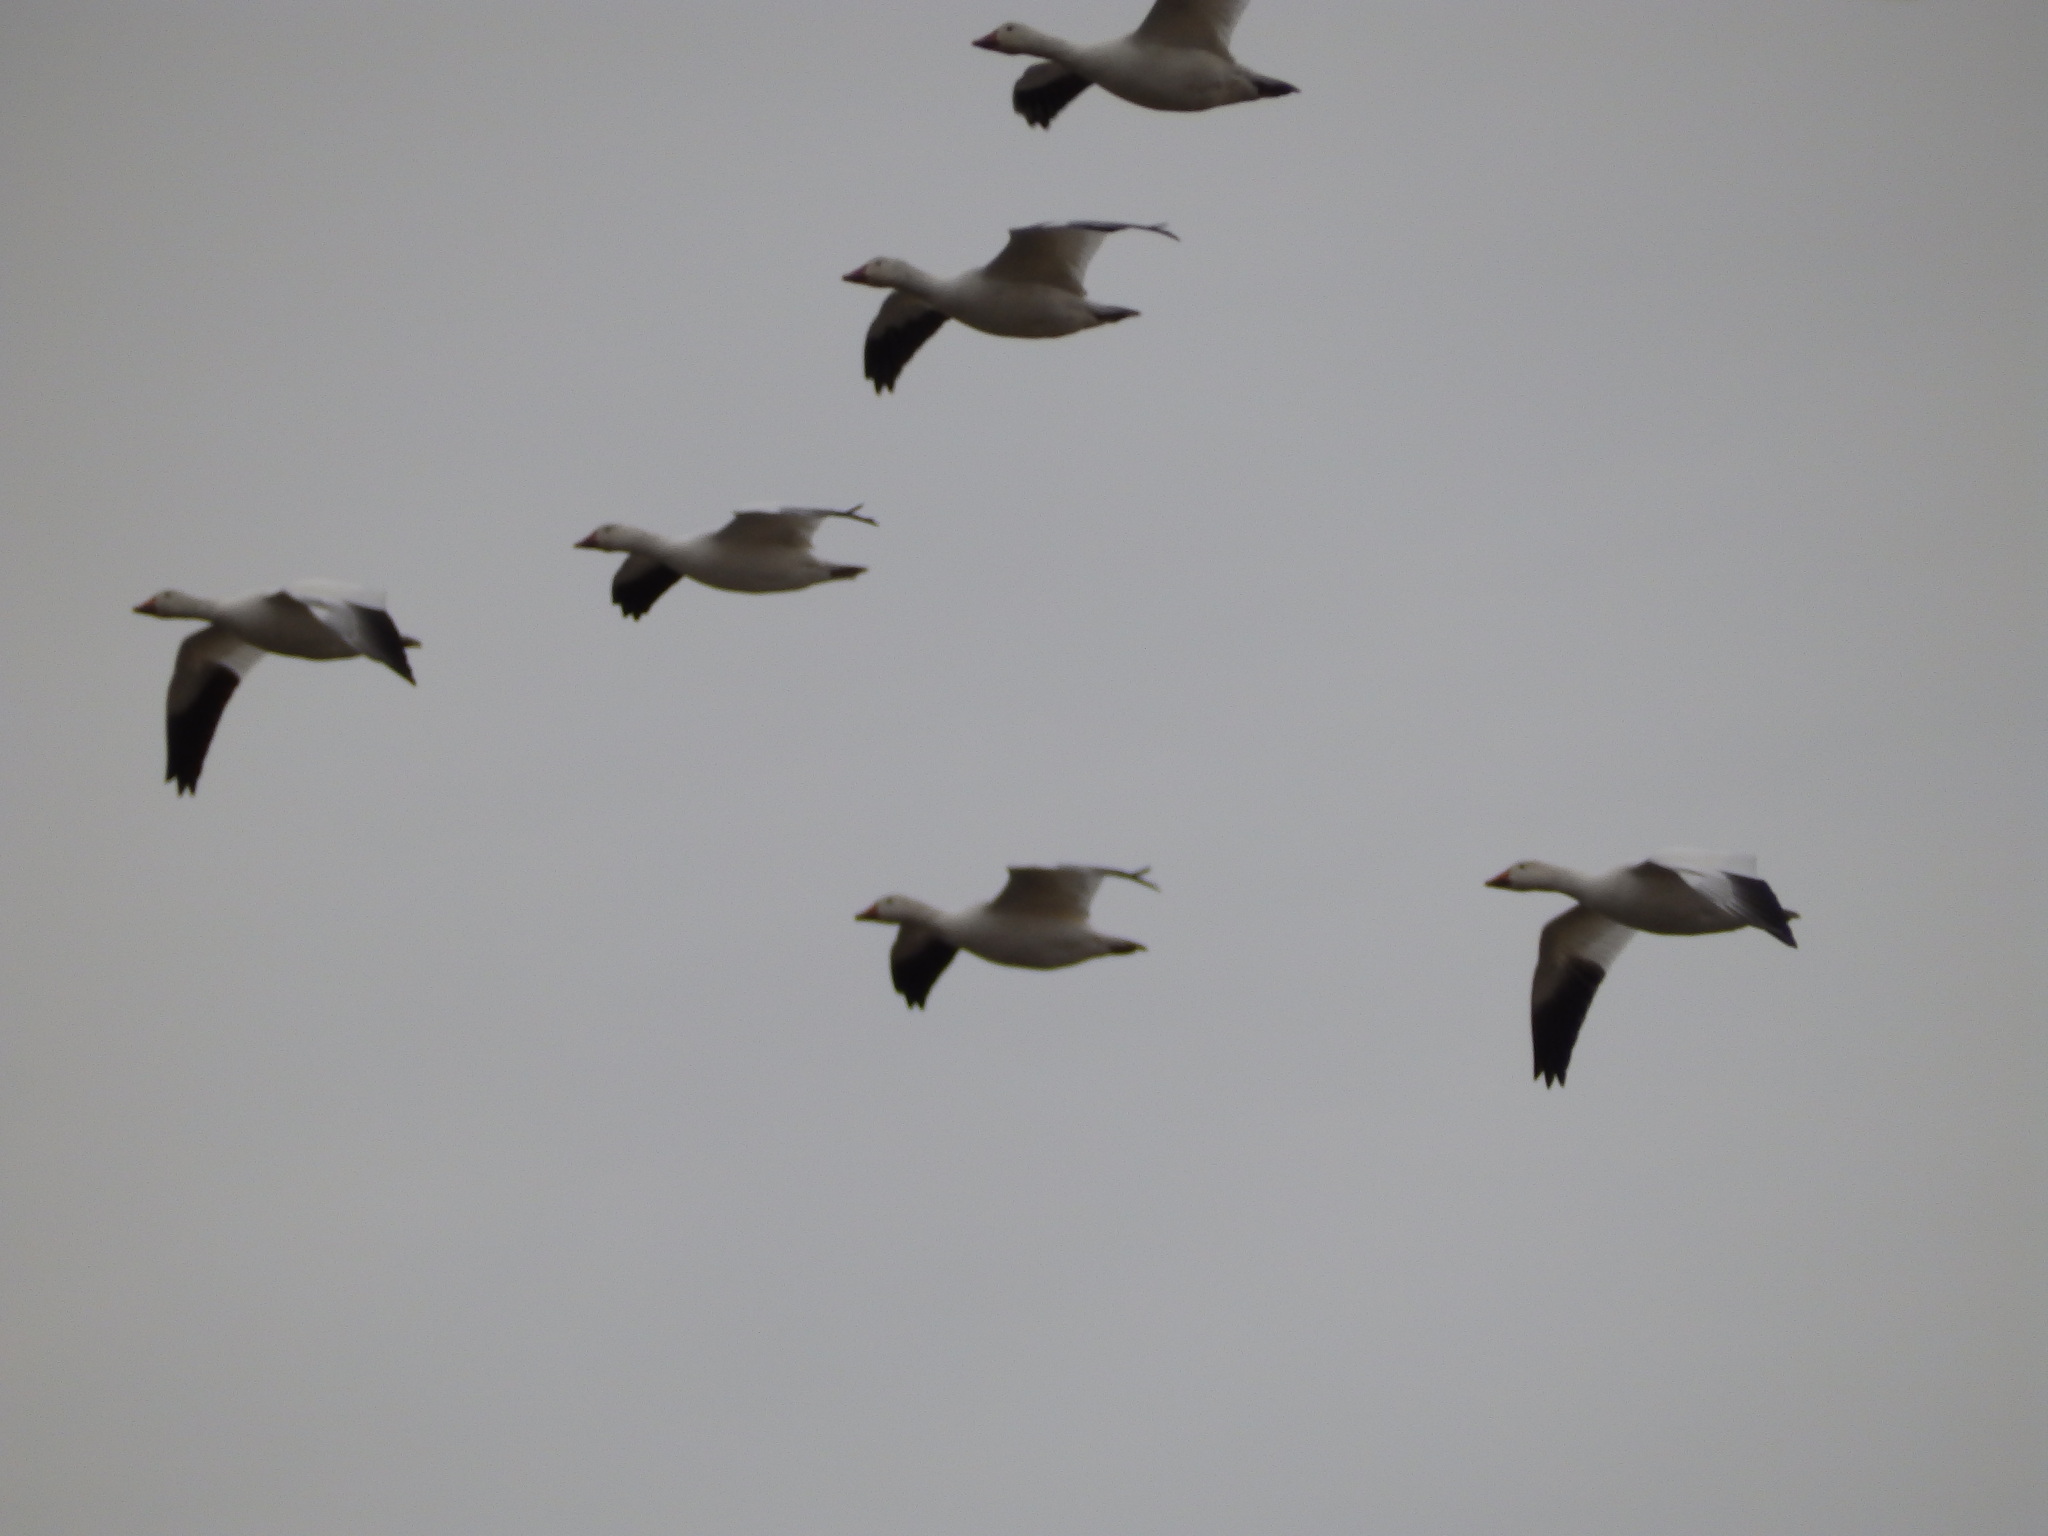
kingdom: Animalia
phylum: Chordata
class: Aves
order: Anseriformes
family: Anatidae
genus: Anser
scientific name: Anser caerulescens
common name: Snow goose
